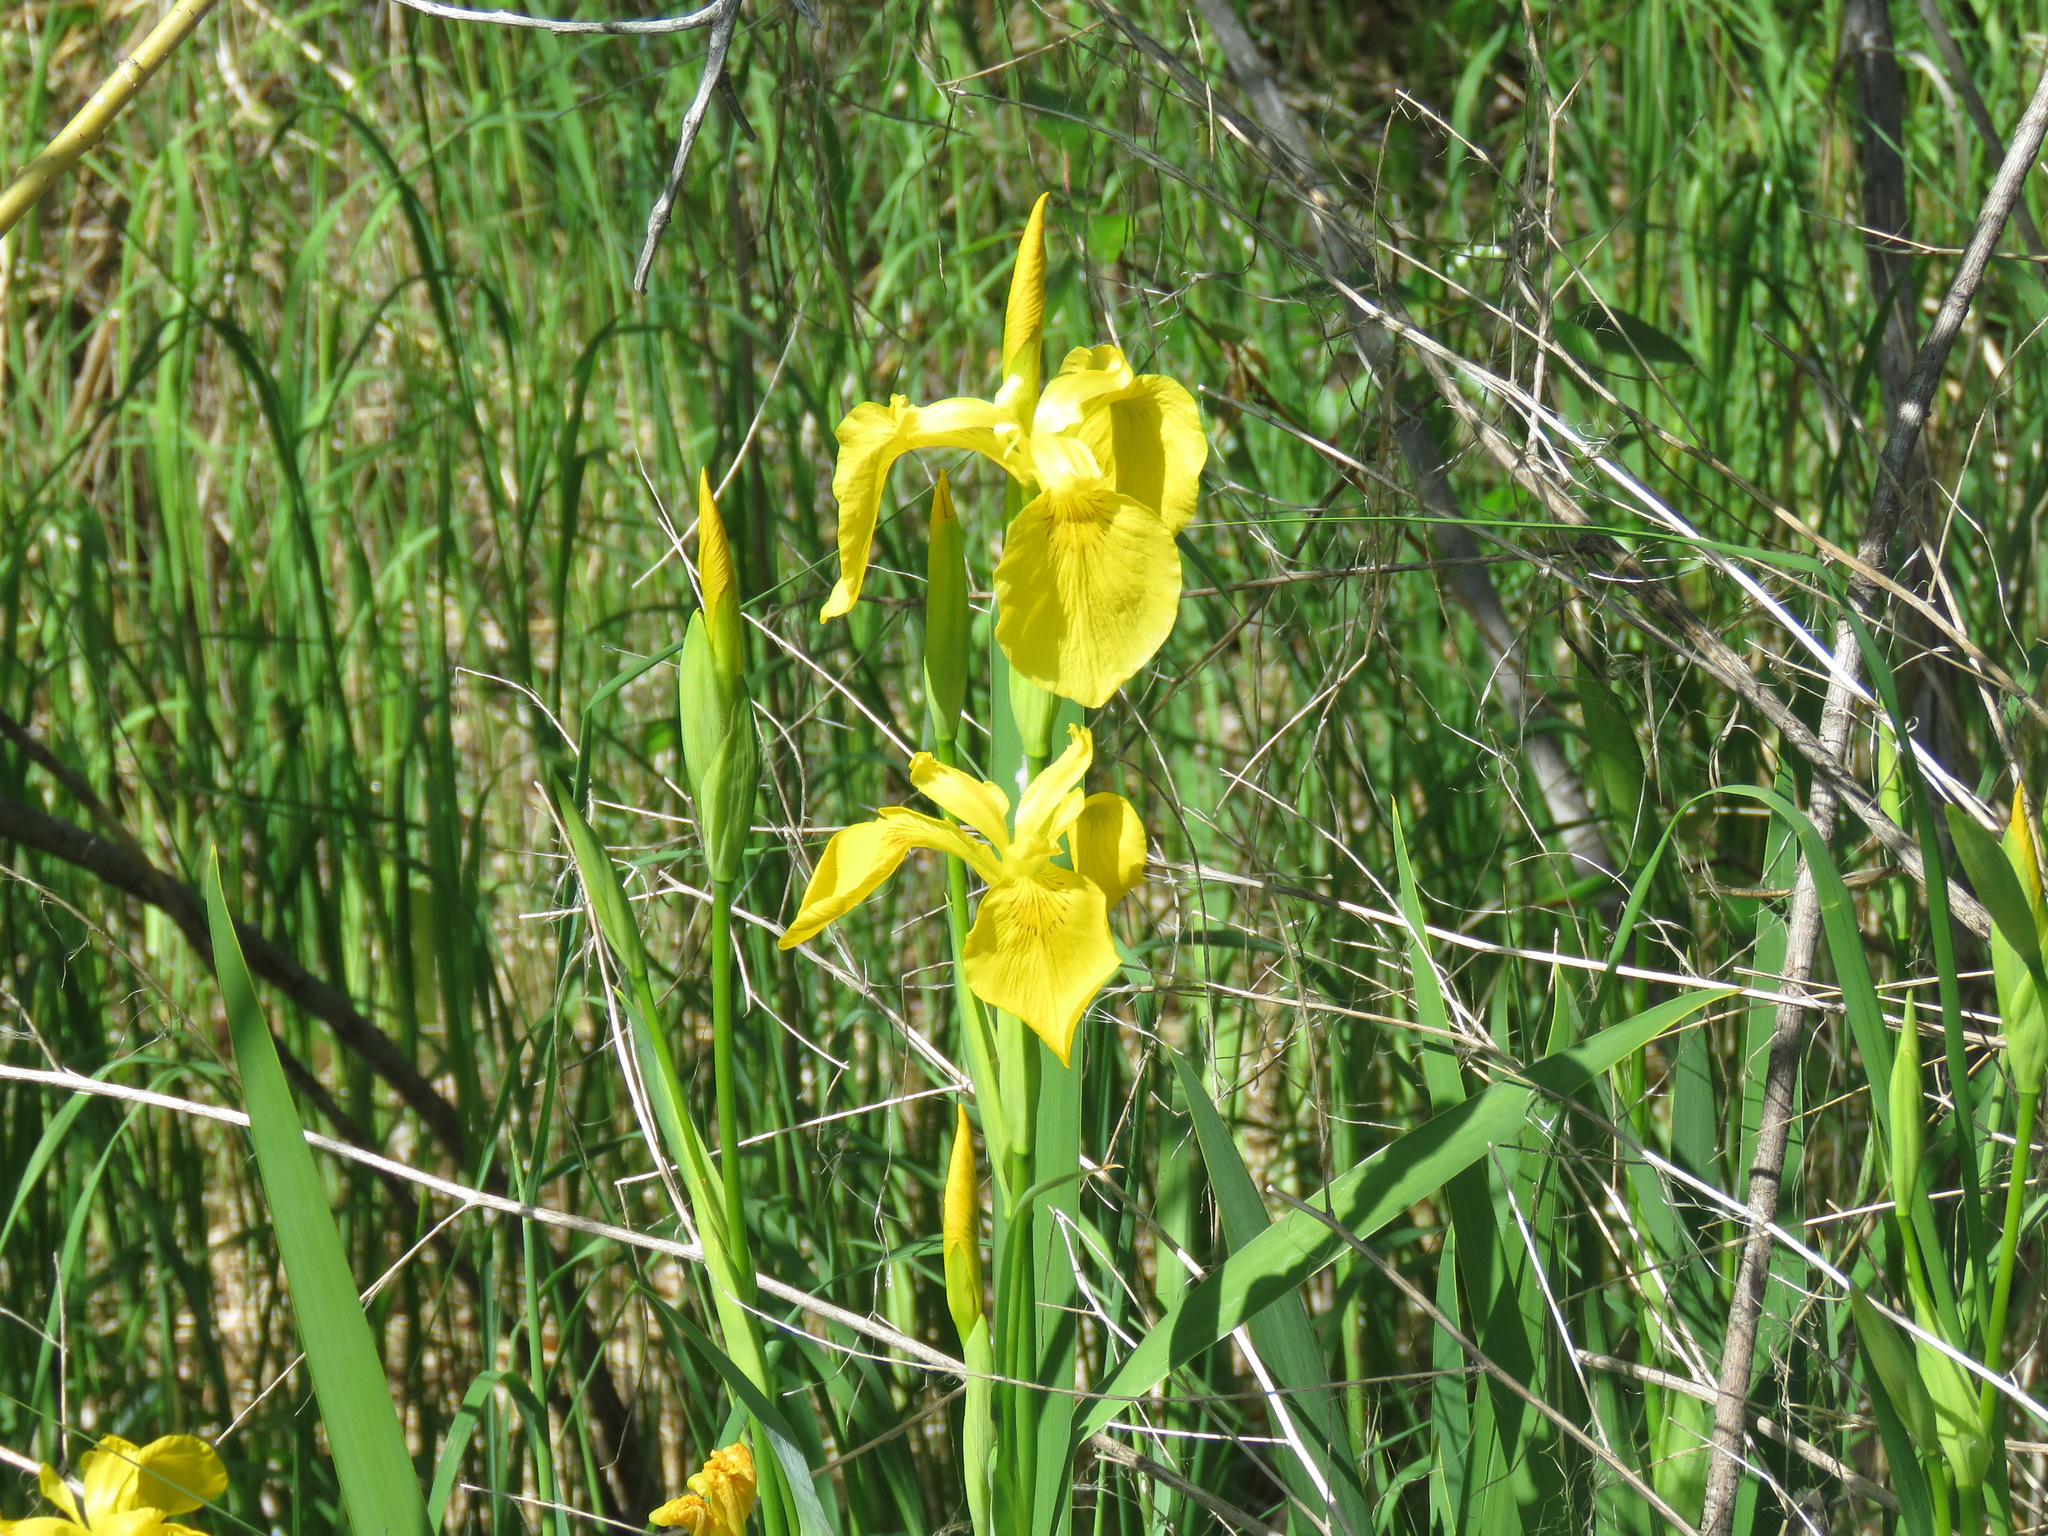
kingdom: Plantae
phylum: Tracheophyta
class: Liliopsida
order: Asparagales
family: Iridaceae
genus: Iris
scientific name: Iris pseudacorus
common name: Yellow flag
